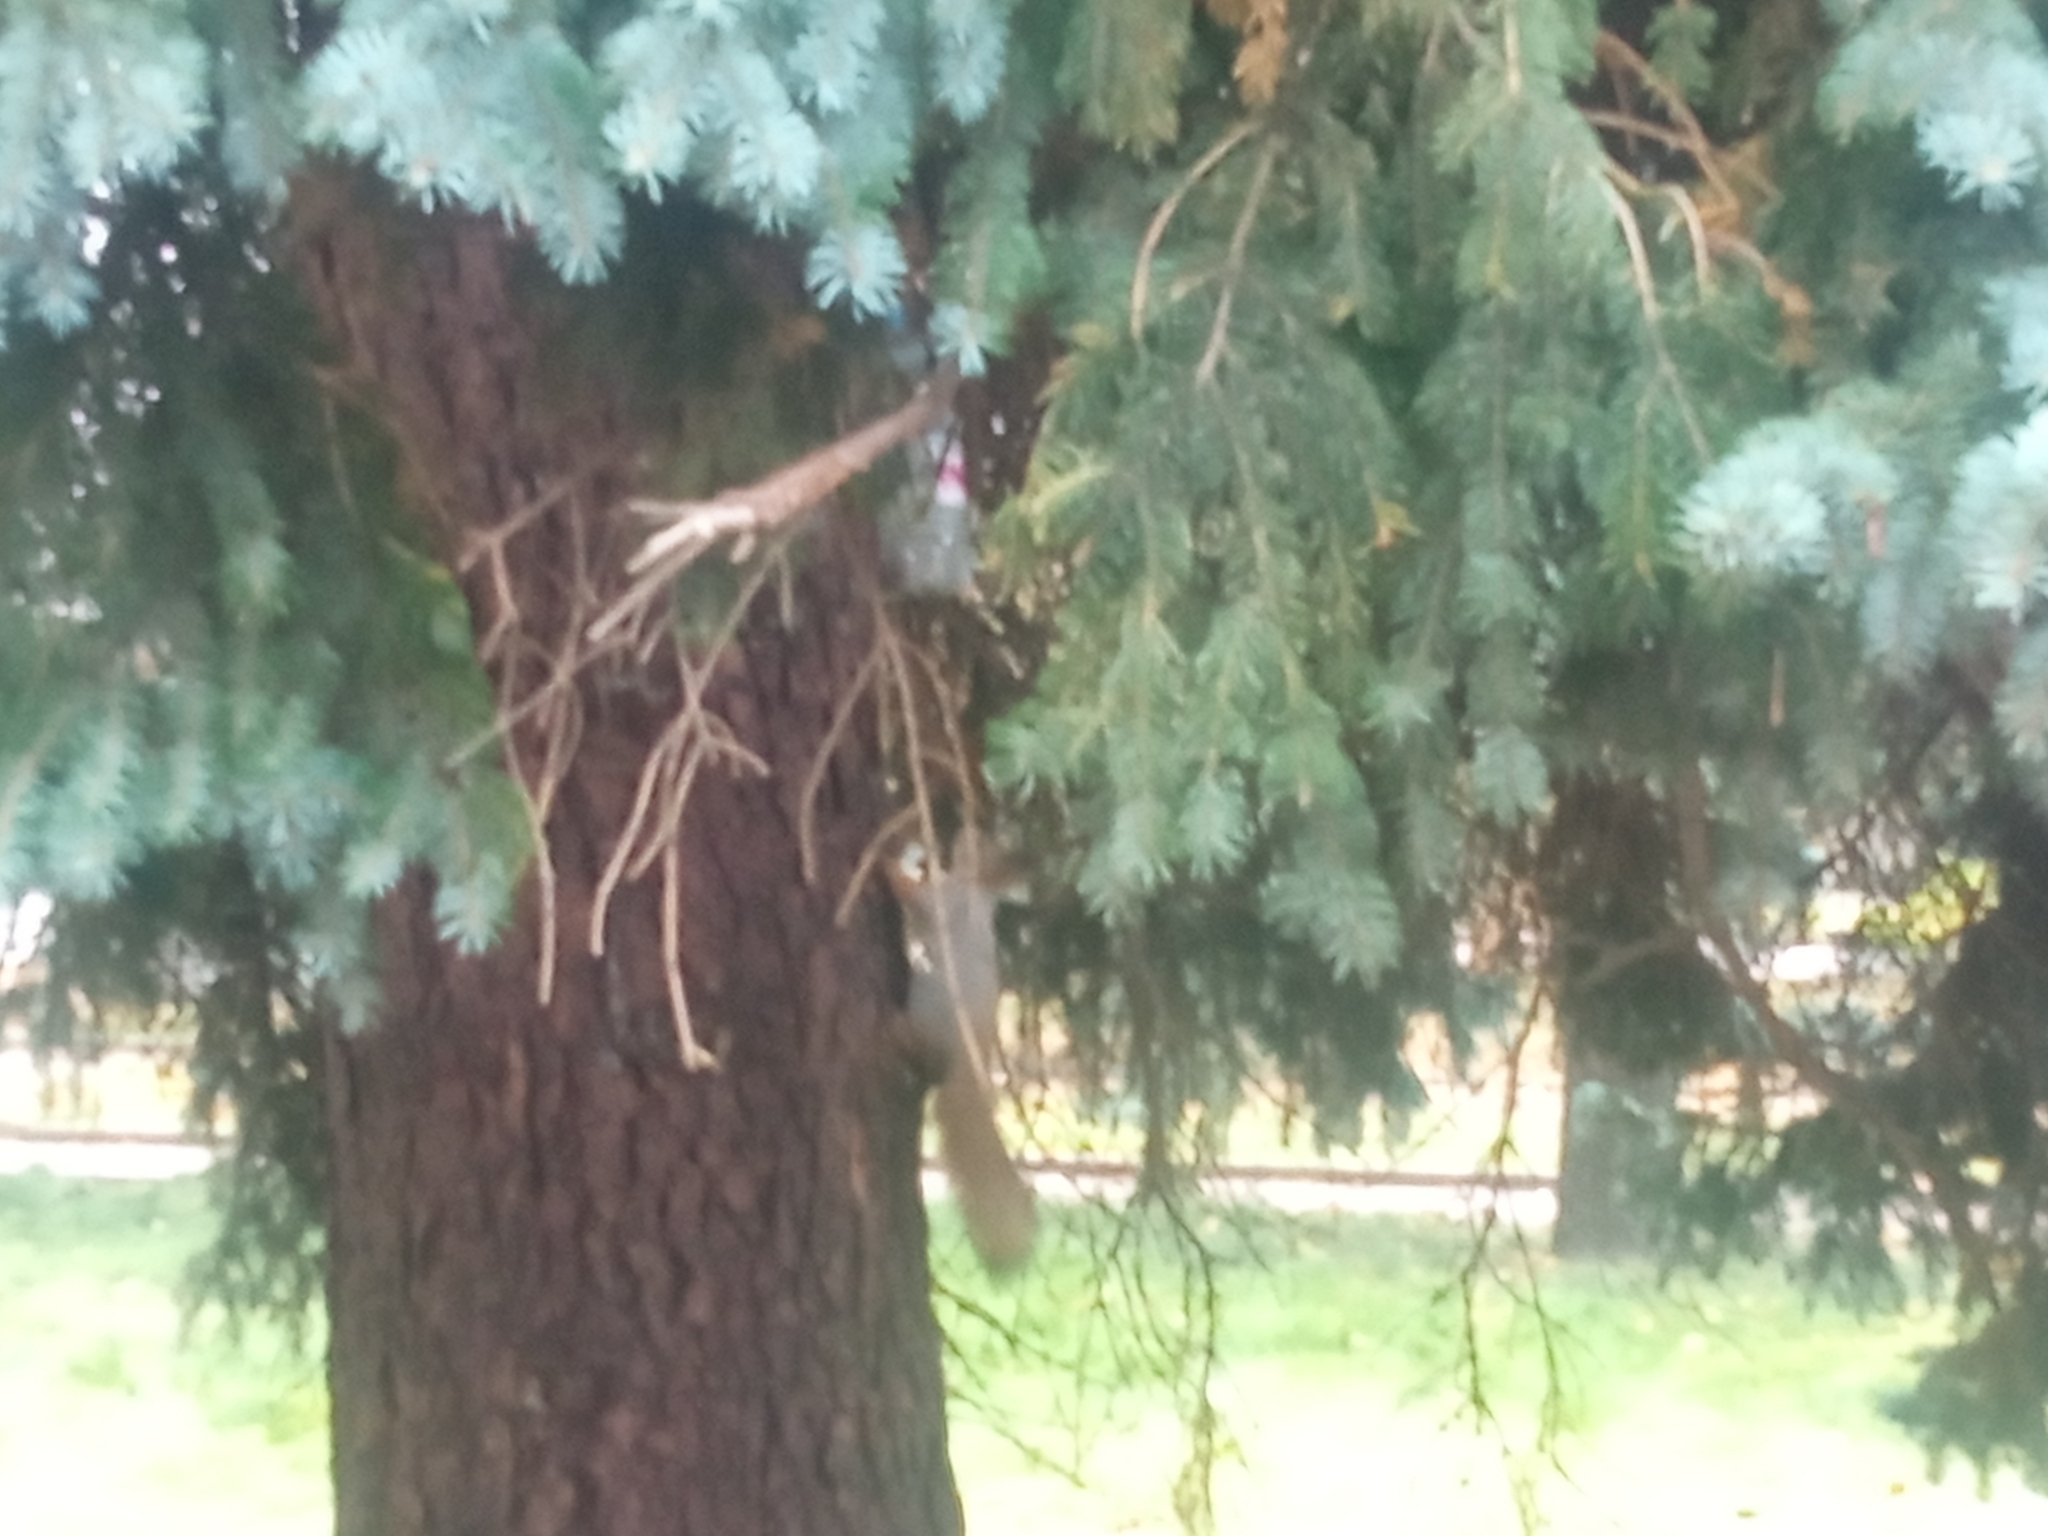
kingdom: Animalia
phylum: Chordata
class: Mammalia
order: Rodentia
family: Sciuridae
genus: Sciurus
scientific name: Sciurus vulgaris
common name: Eurasian red squirrel
